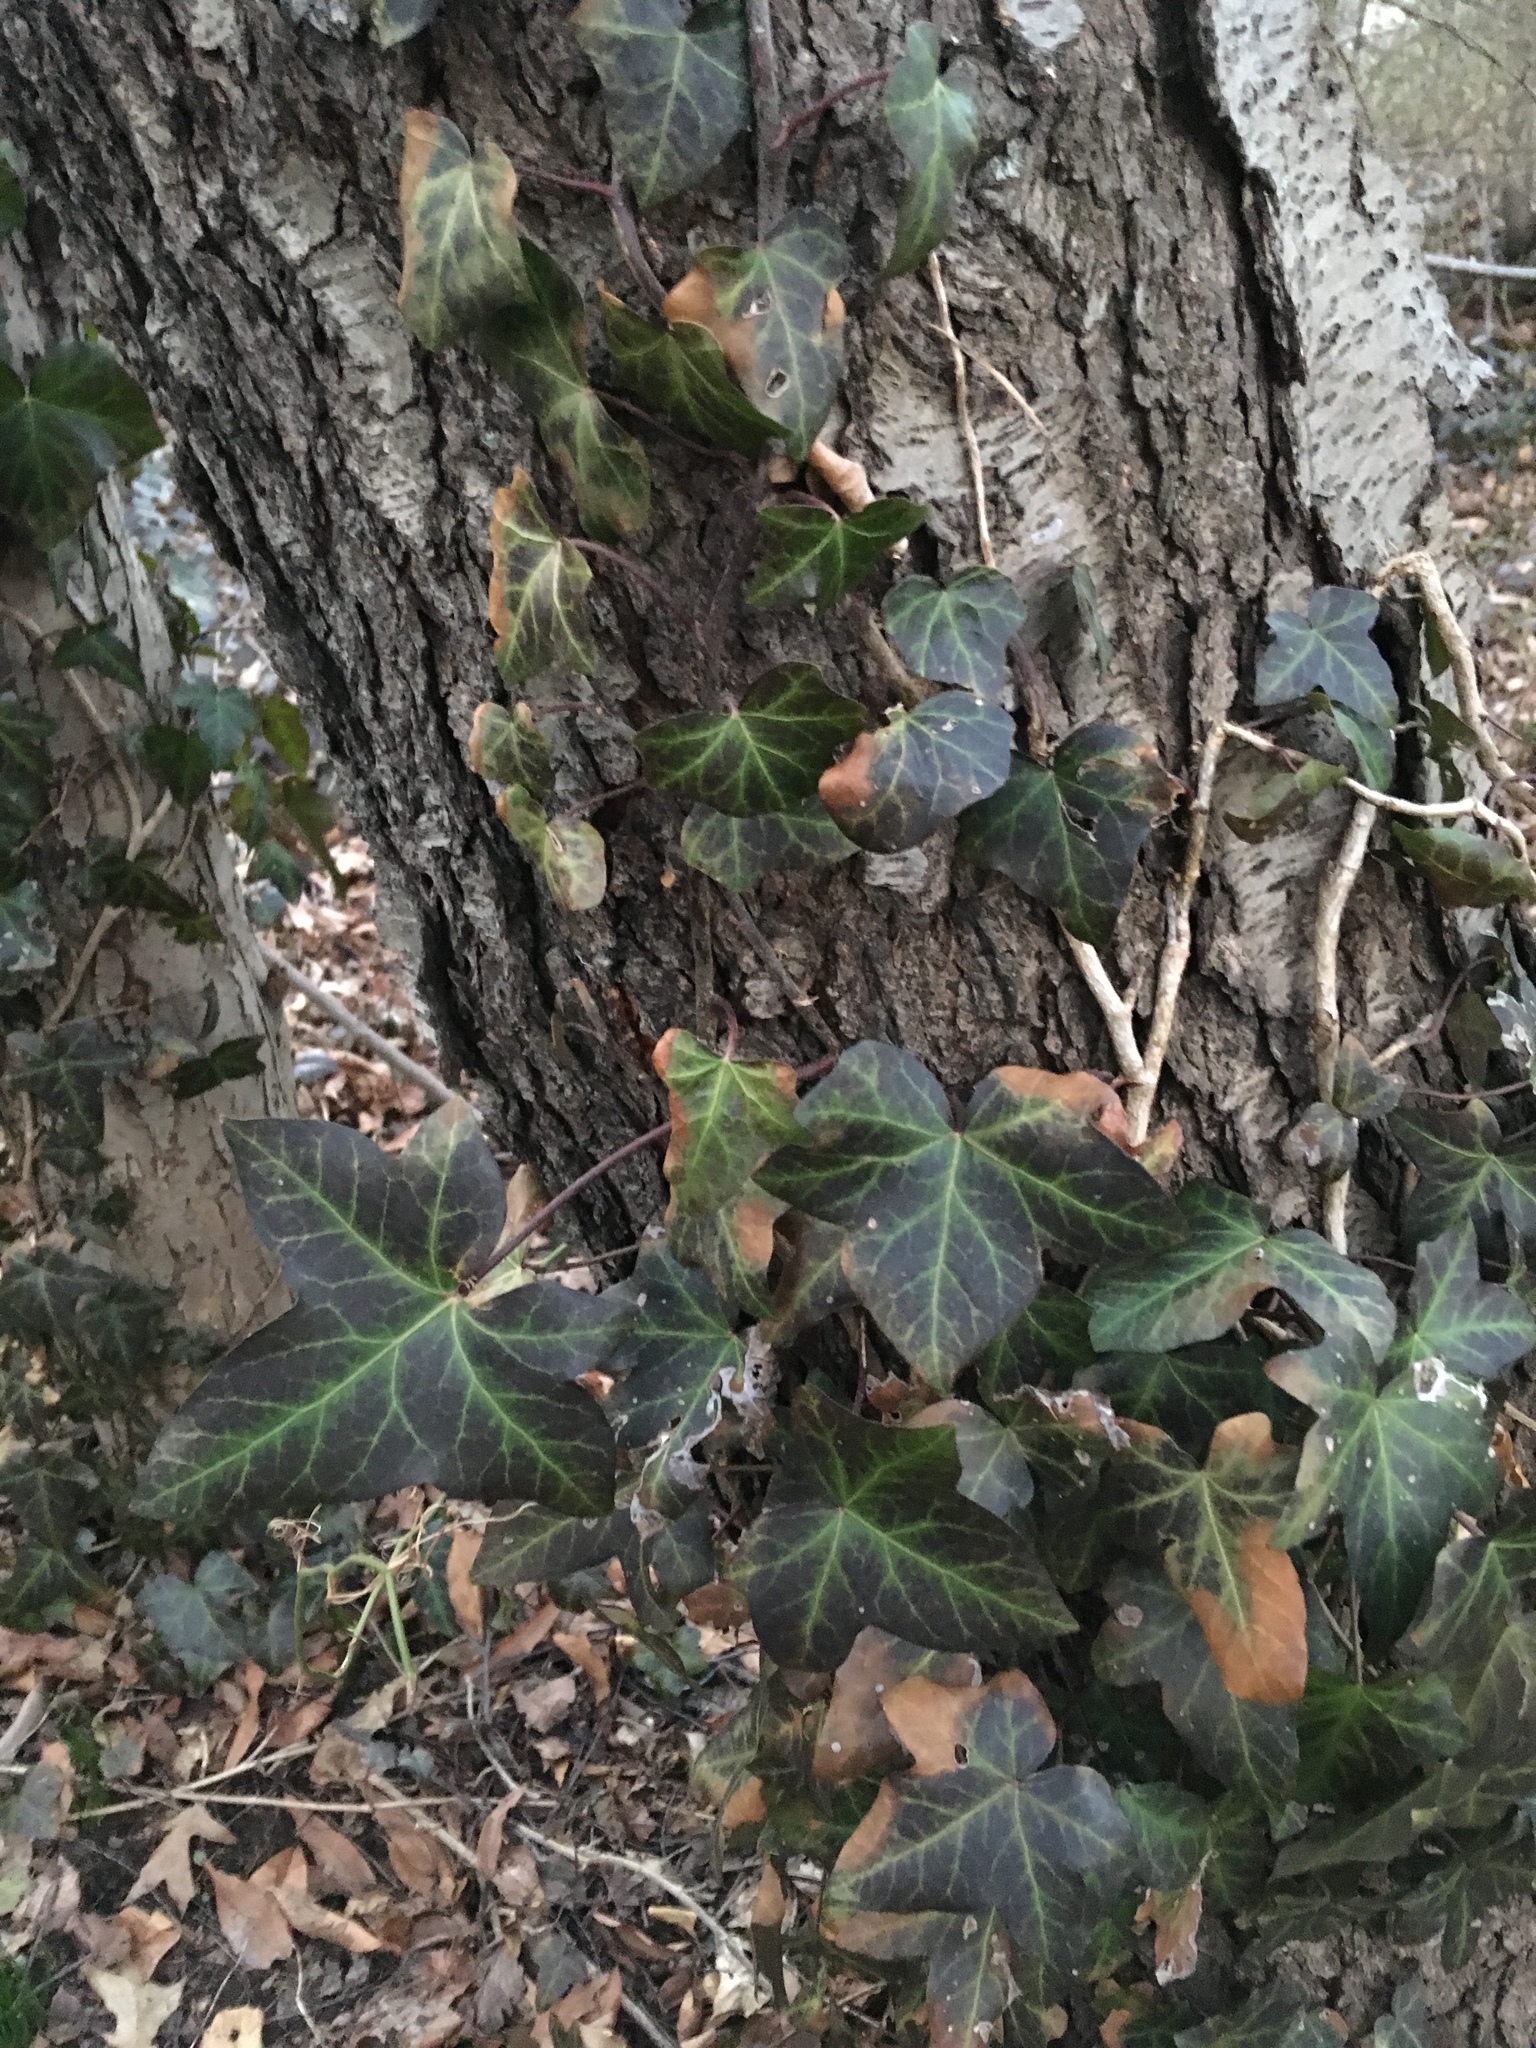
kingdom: Plantae
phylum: Tracheophyta
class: Magnoliopsida
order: Apiales
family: Araliaceae
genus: Hedera
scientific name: Hedera helix
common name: Ivy
